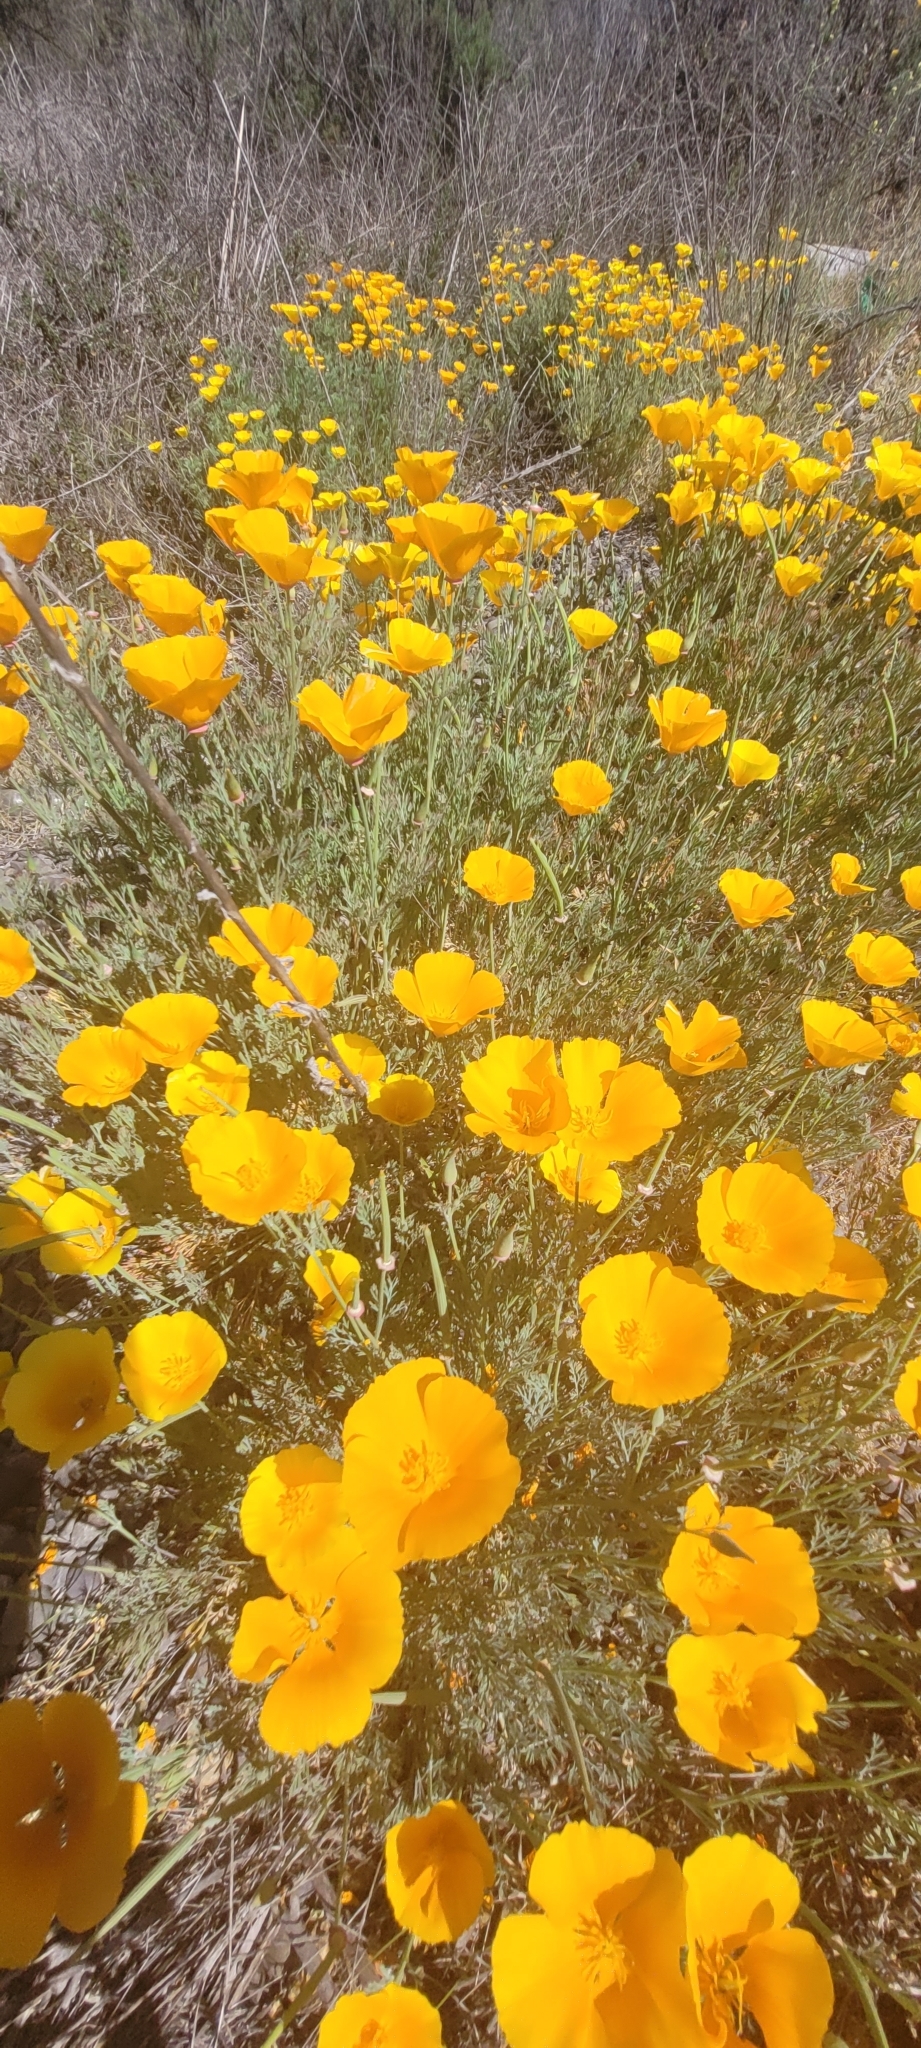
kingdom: Plantae
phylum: Tracheophyta
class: Magnoliopsida
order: Ranunculales
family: Papaveraceae
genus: Eschscholzia
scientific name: Eschscholzia californica
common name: California poppy
